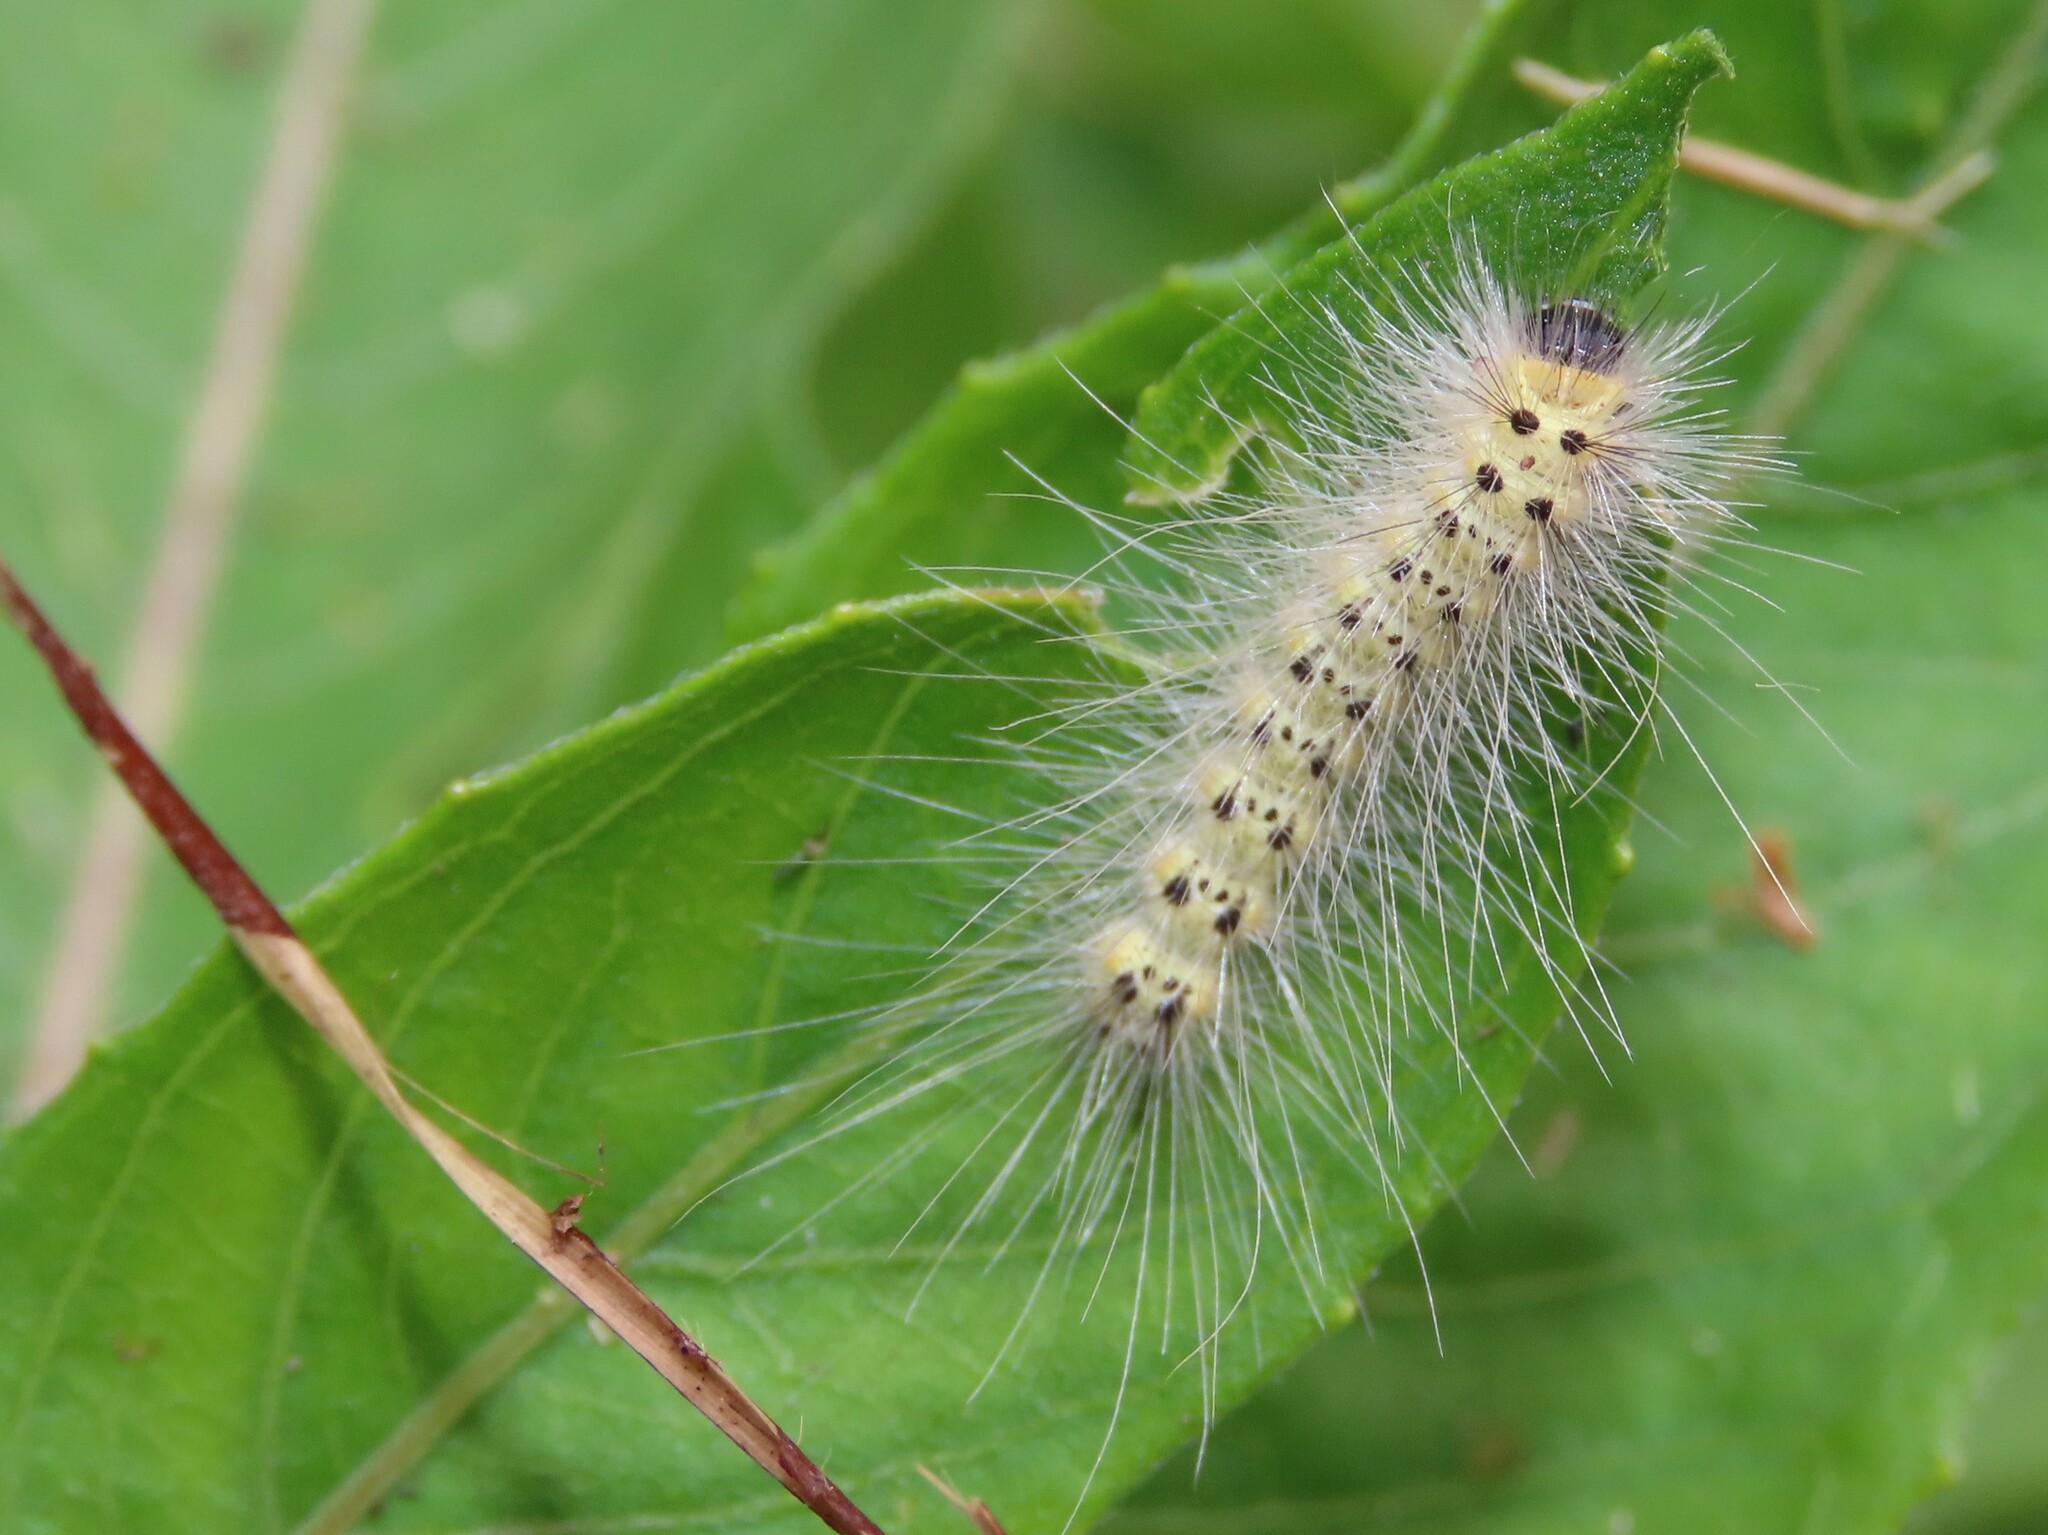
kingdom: Animalia
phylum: Arthropoda
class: Insecta
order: Lepidoptera
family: Erebidae
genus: Hyphantria
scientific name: Hyphantria cunea
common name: American white moth
